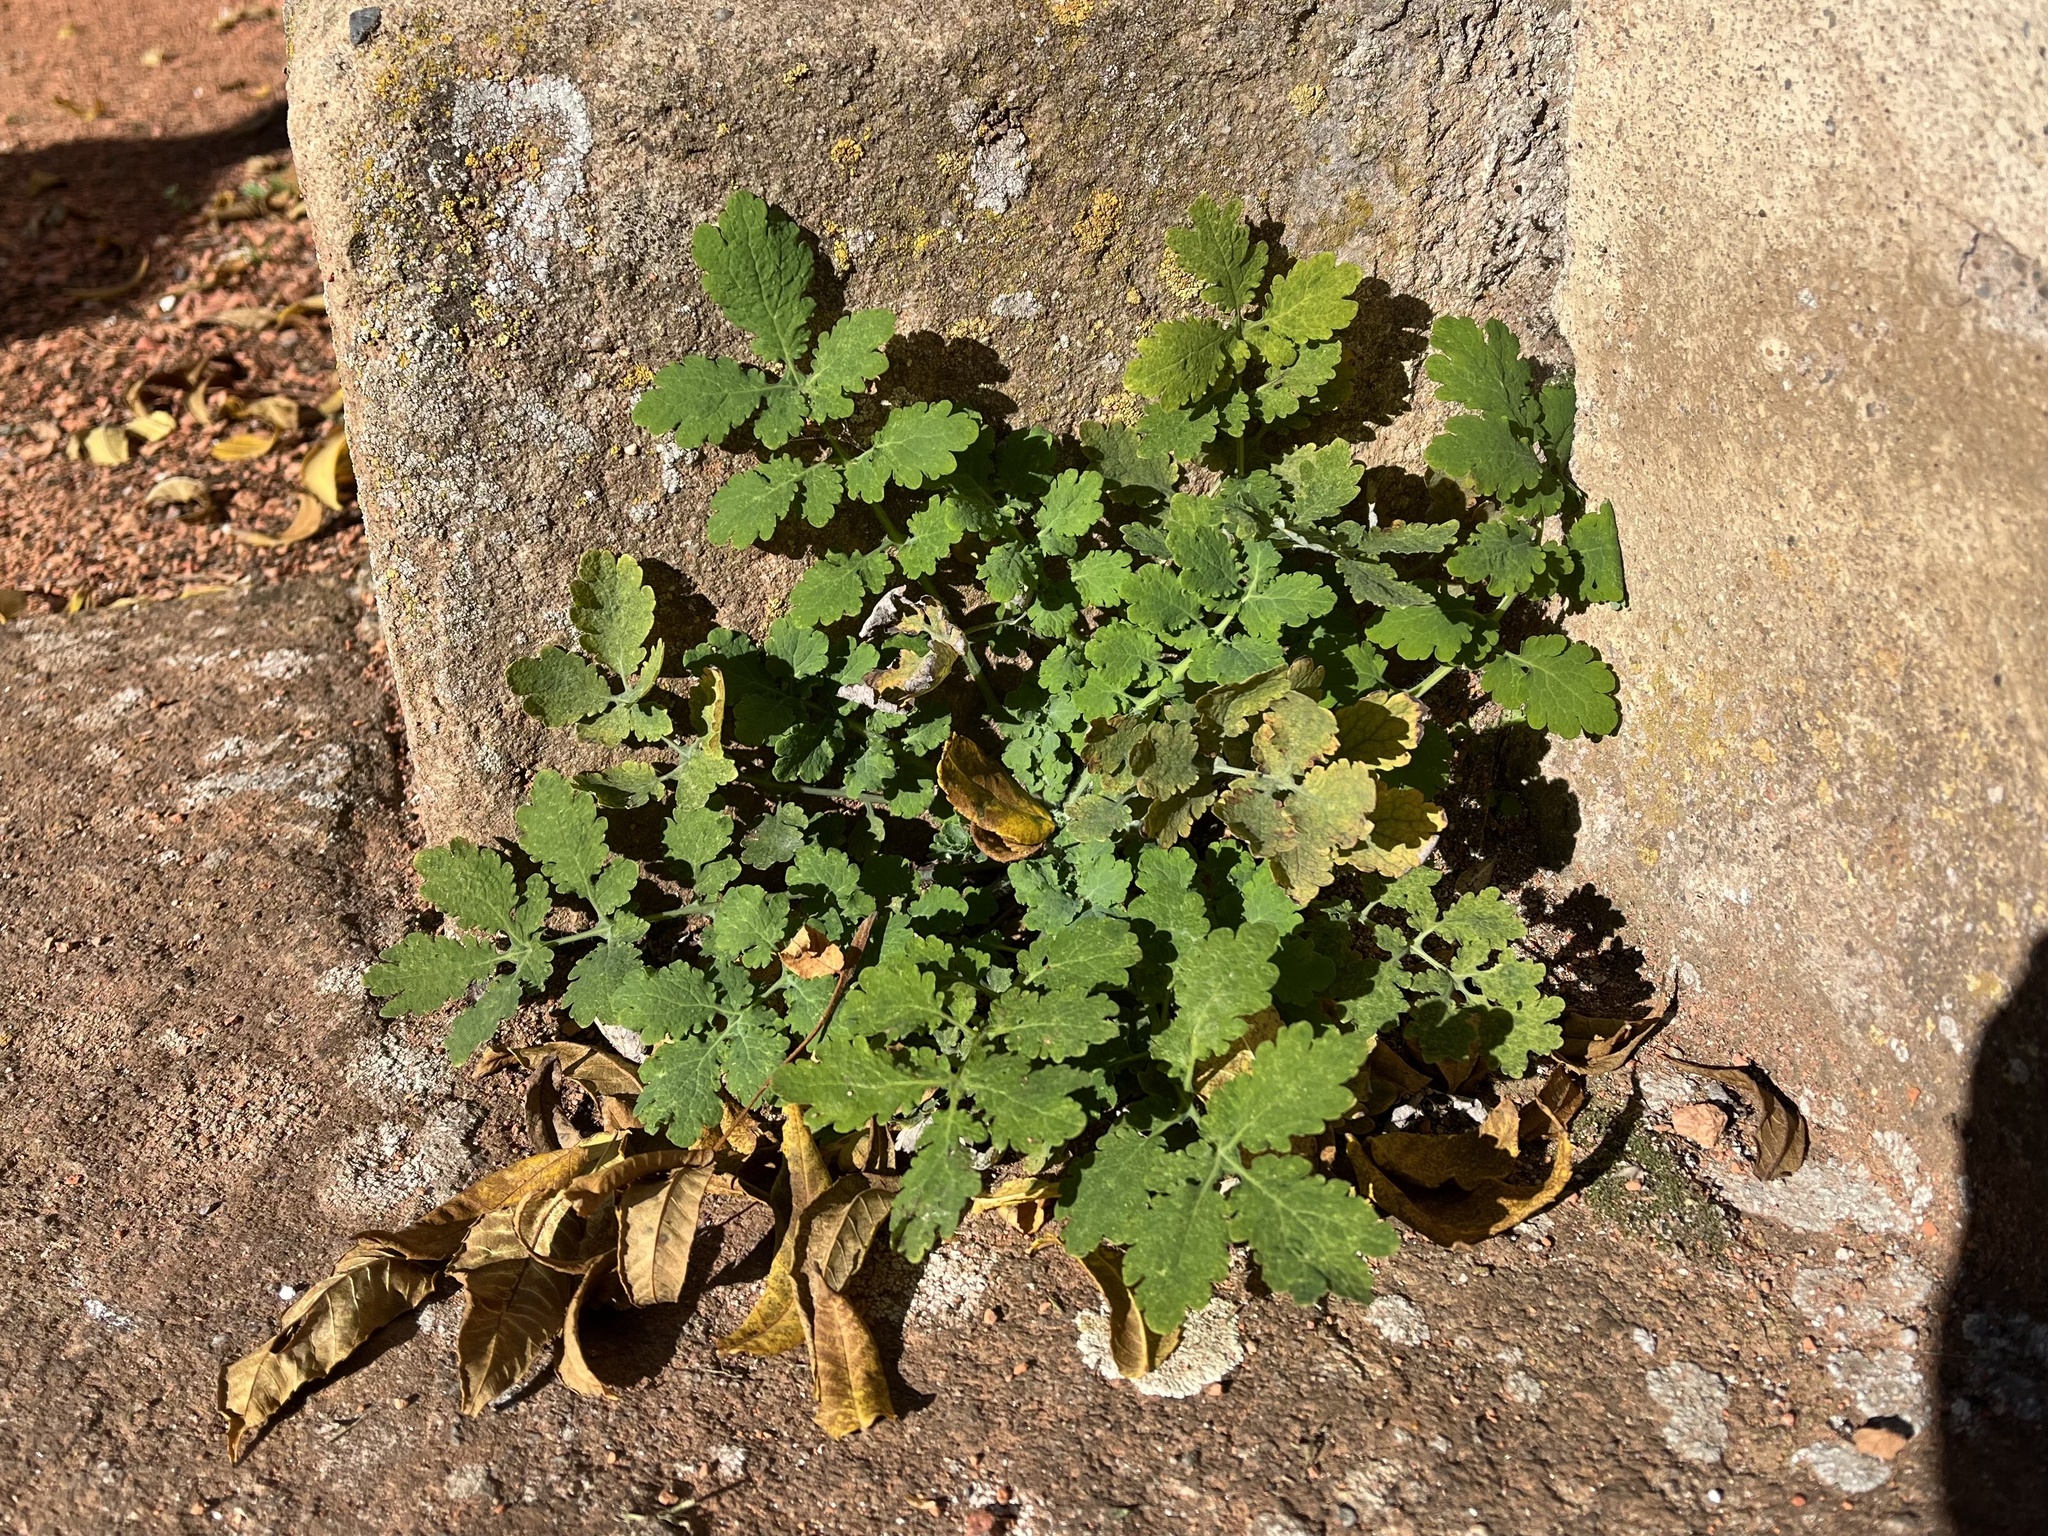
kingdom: Plantae
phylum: Tracheophyta
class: Magnoliopsida
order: Ranunculales
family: Papaveraceae
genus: Chelidonium
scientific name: Chelidonium majus
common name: Greater celandine
